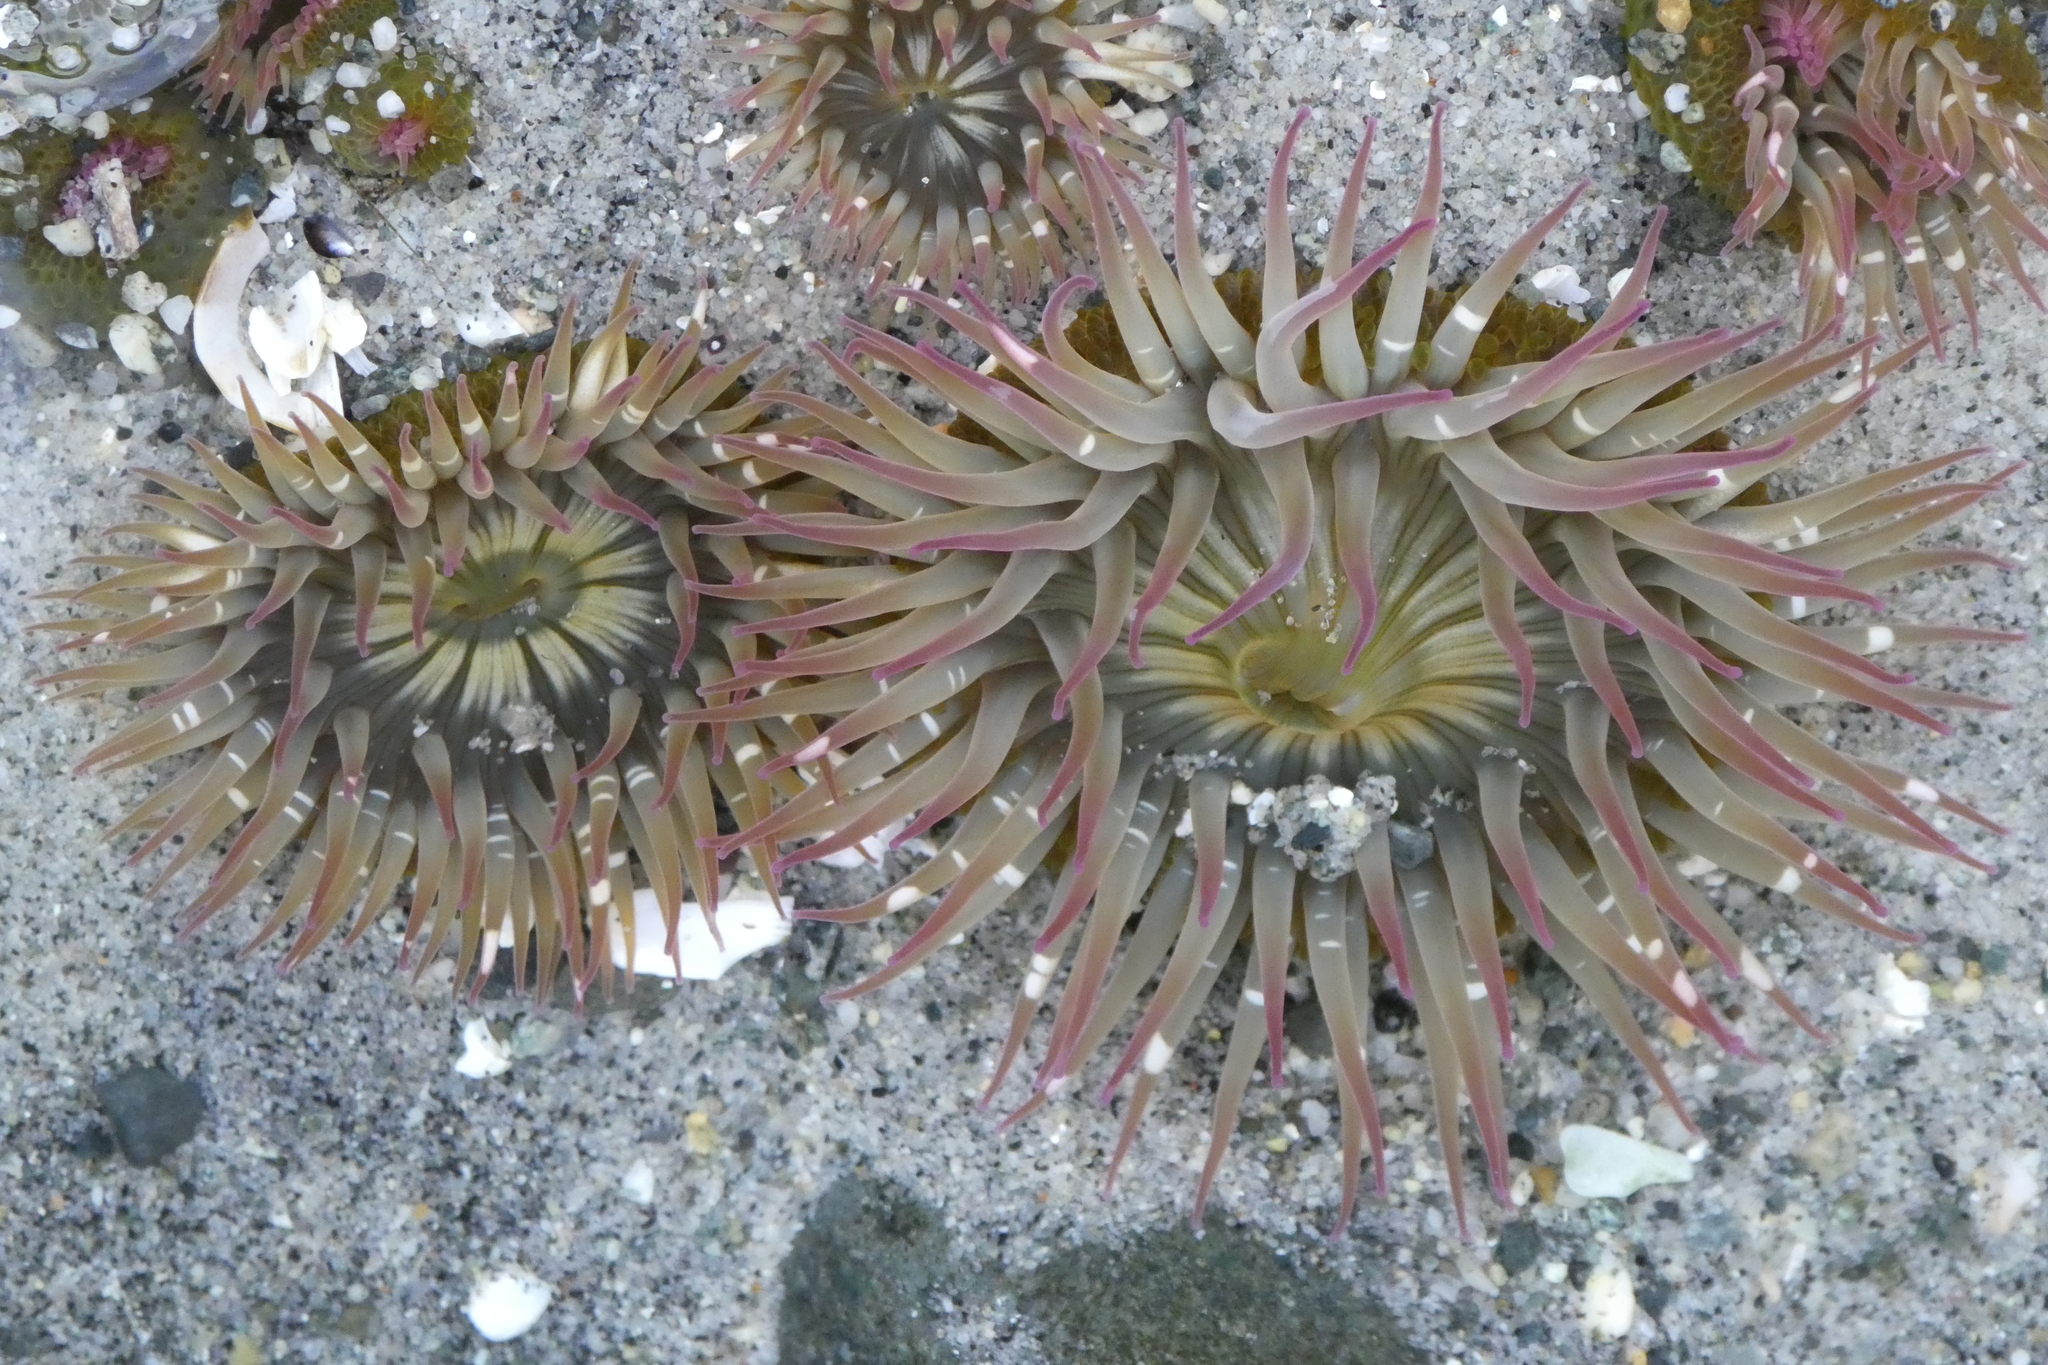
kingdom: Animalia
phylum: Cnidaria
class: Anthozoa
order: Actiniaria
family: Actiniidae
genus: Anthopleura
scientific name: Anthopleura elegantissima
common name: Clonal anemone
